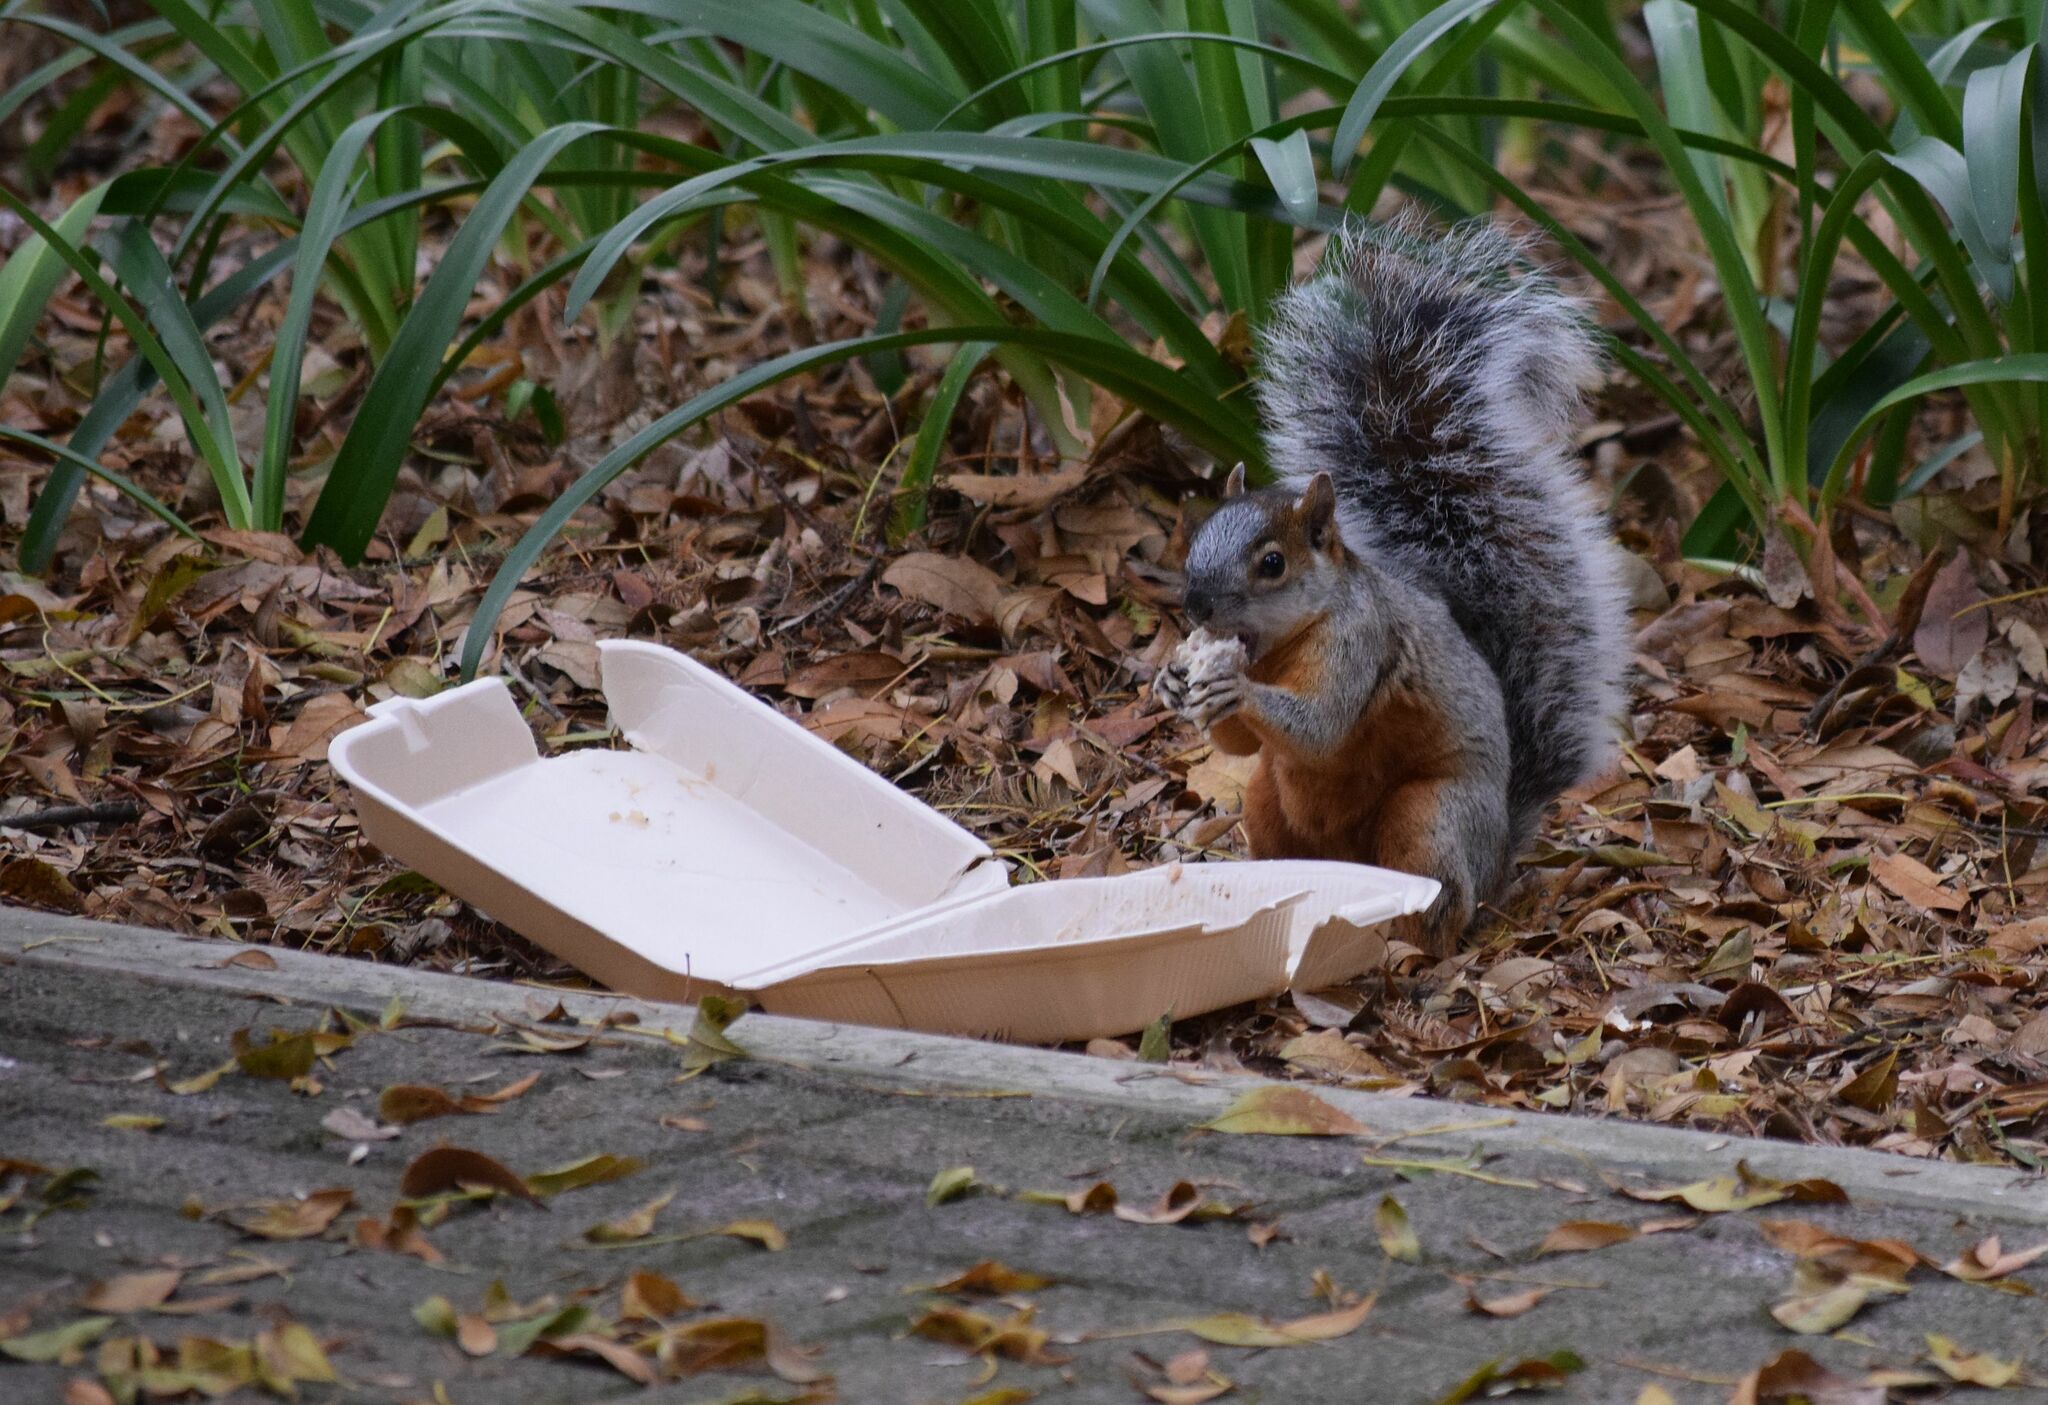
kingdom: Animalia
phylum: Chordata
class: Mammalia
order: Rodentia
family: Sciuridae
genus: Sciurus
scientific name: Sciurus aureogaster
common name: Red-bellied squirrel
